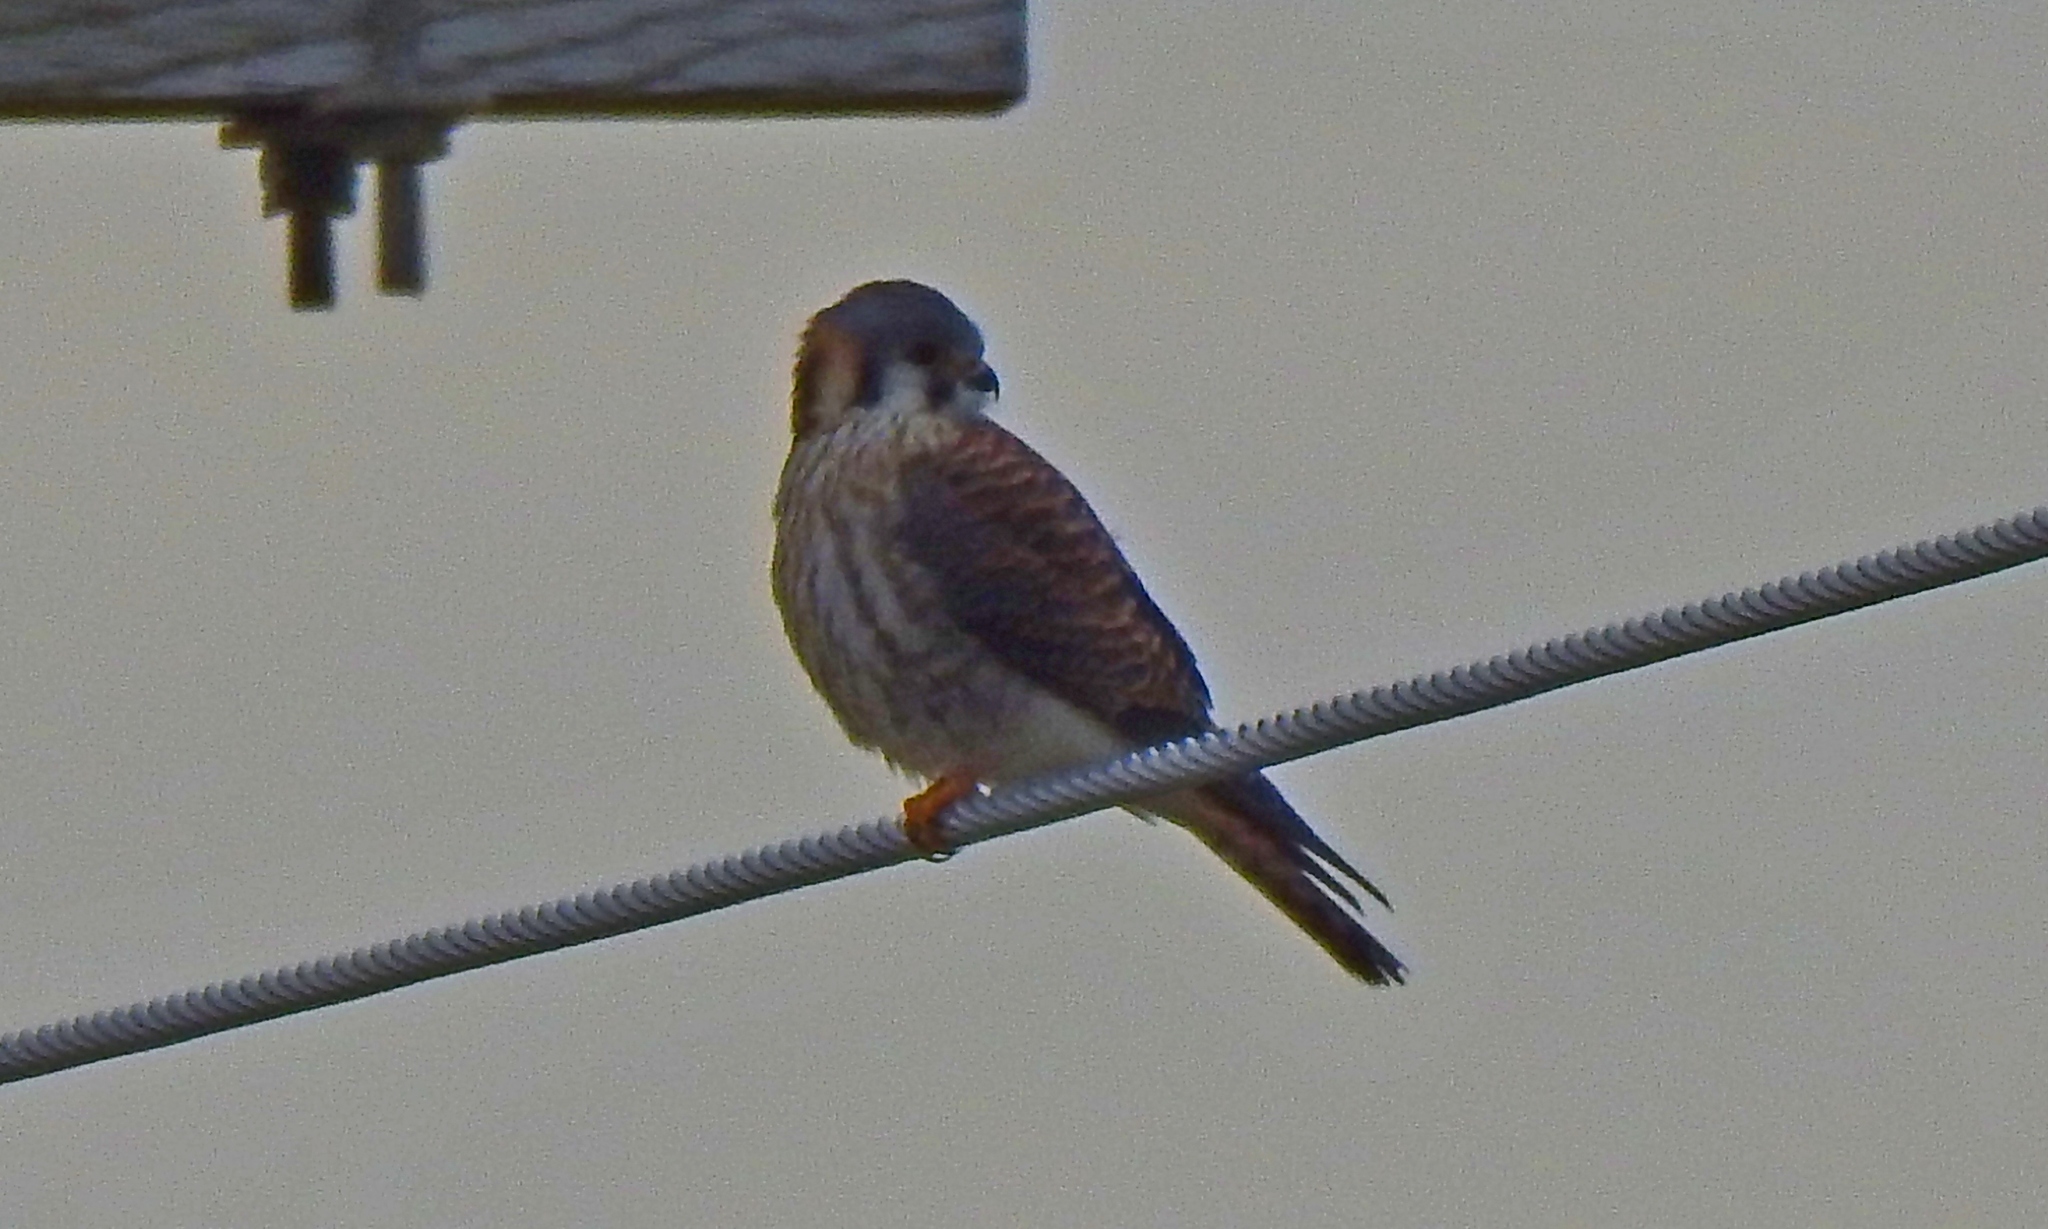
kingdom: Animalia
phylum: Chordata
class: Aves
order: Falconiformes
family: Falconidae
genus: Falco
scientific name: Falco sparverius
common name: American kestrel
